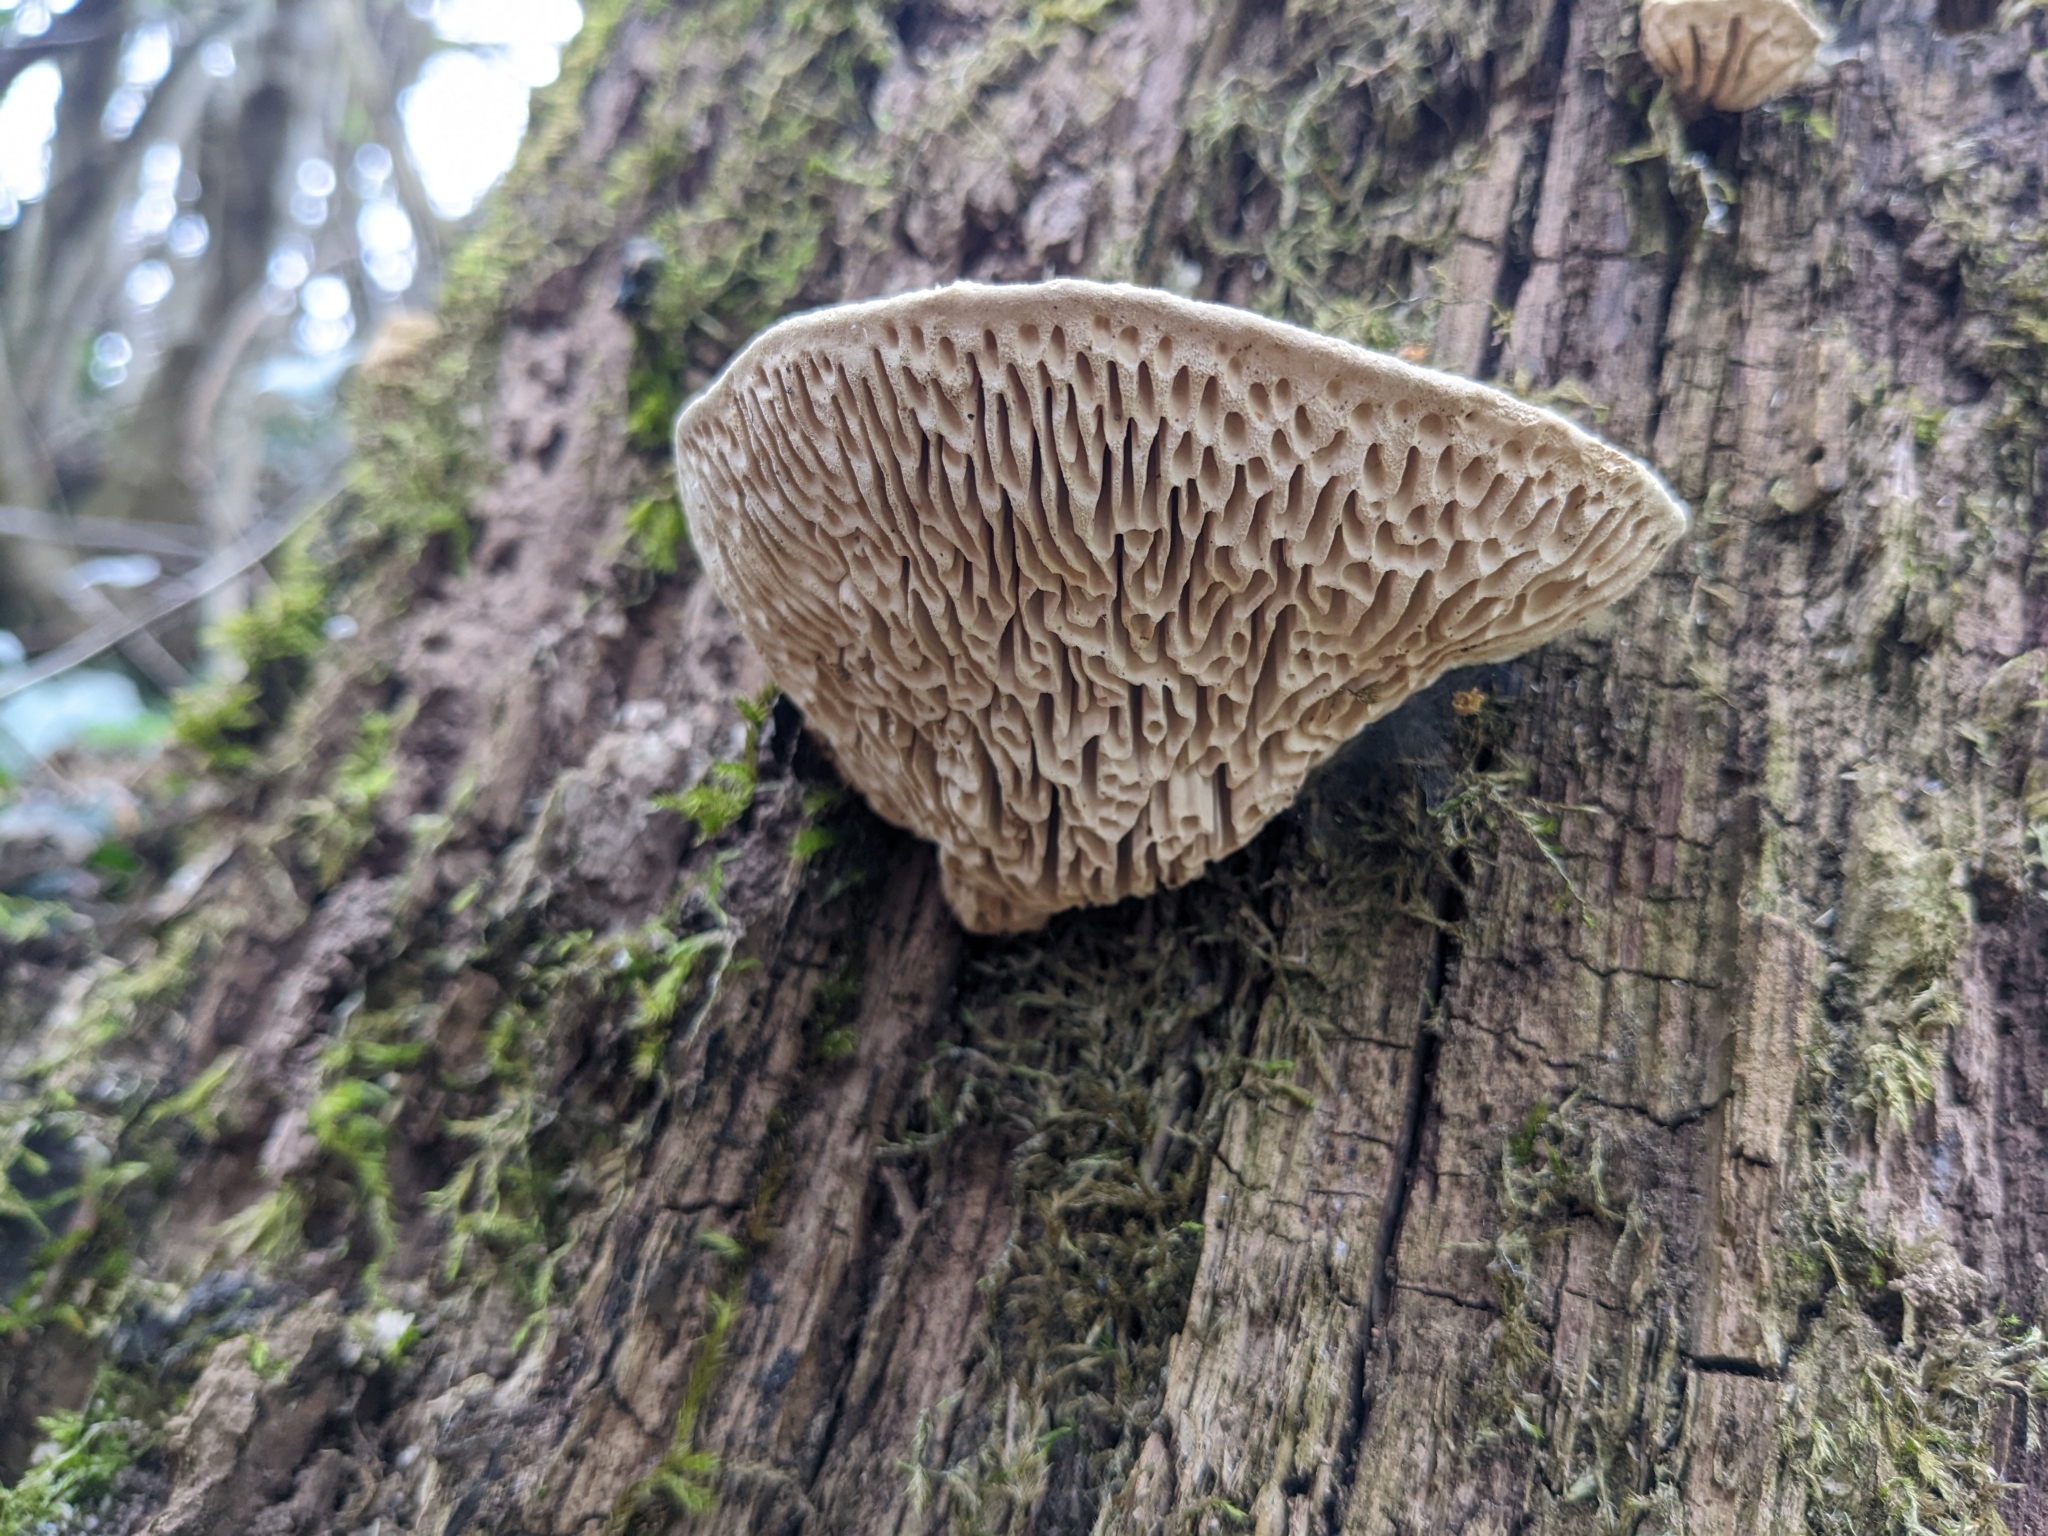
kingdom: Fungi
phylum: Basidiomycota
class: Agaricomycetes
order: Polyporales
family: Fomitopsidaceae
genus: Fomitopsis
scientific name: Fomitopsis
